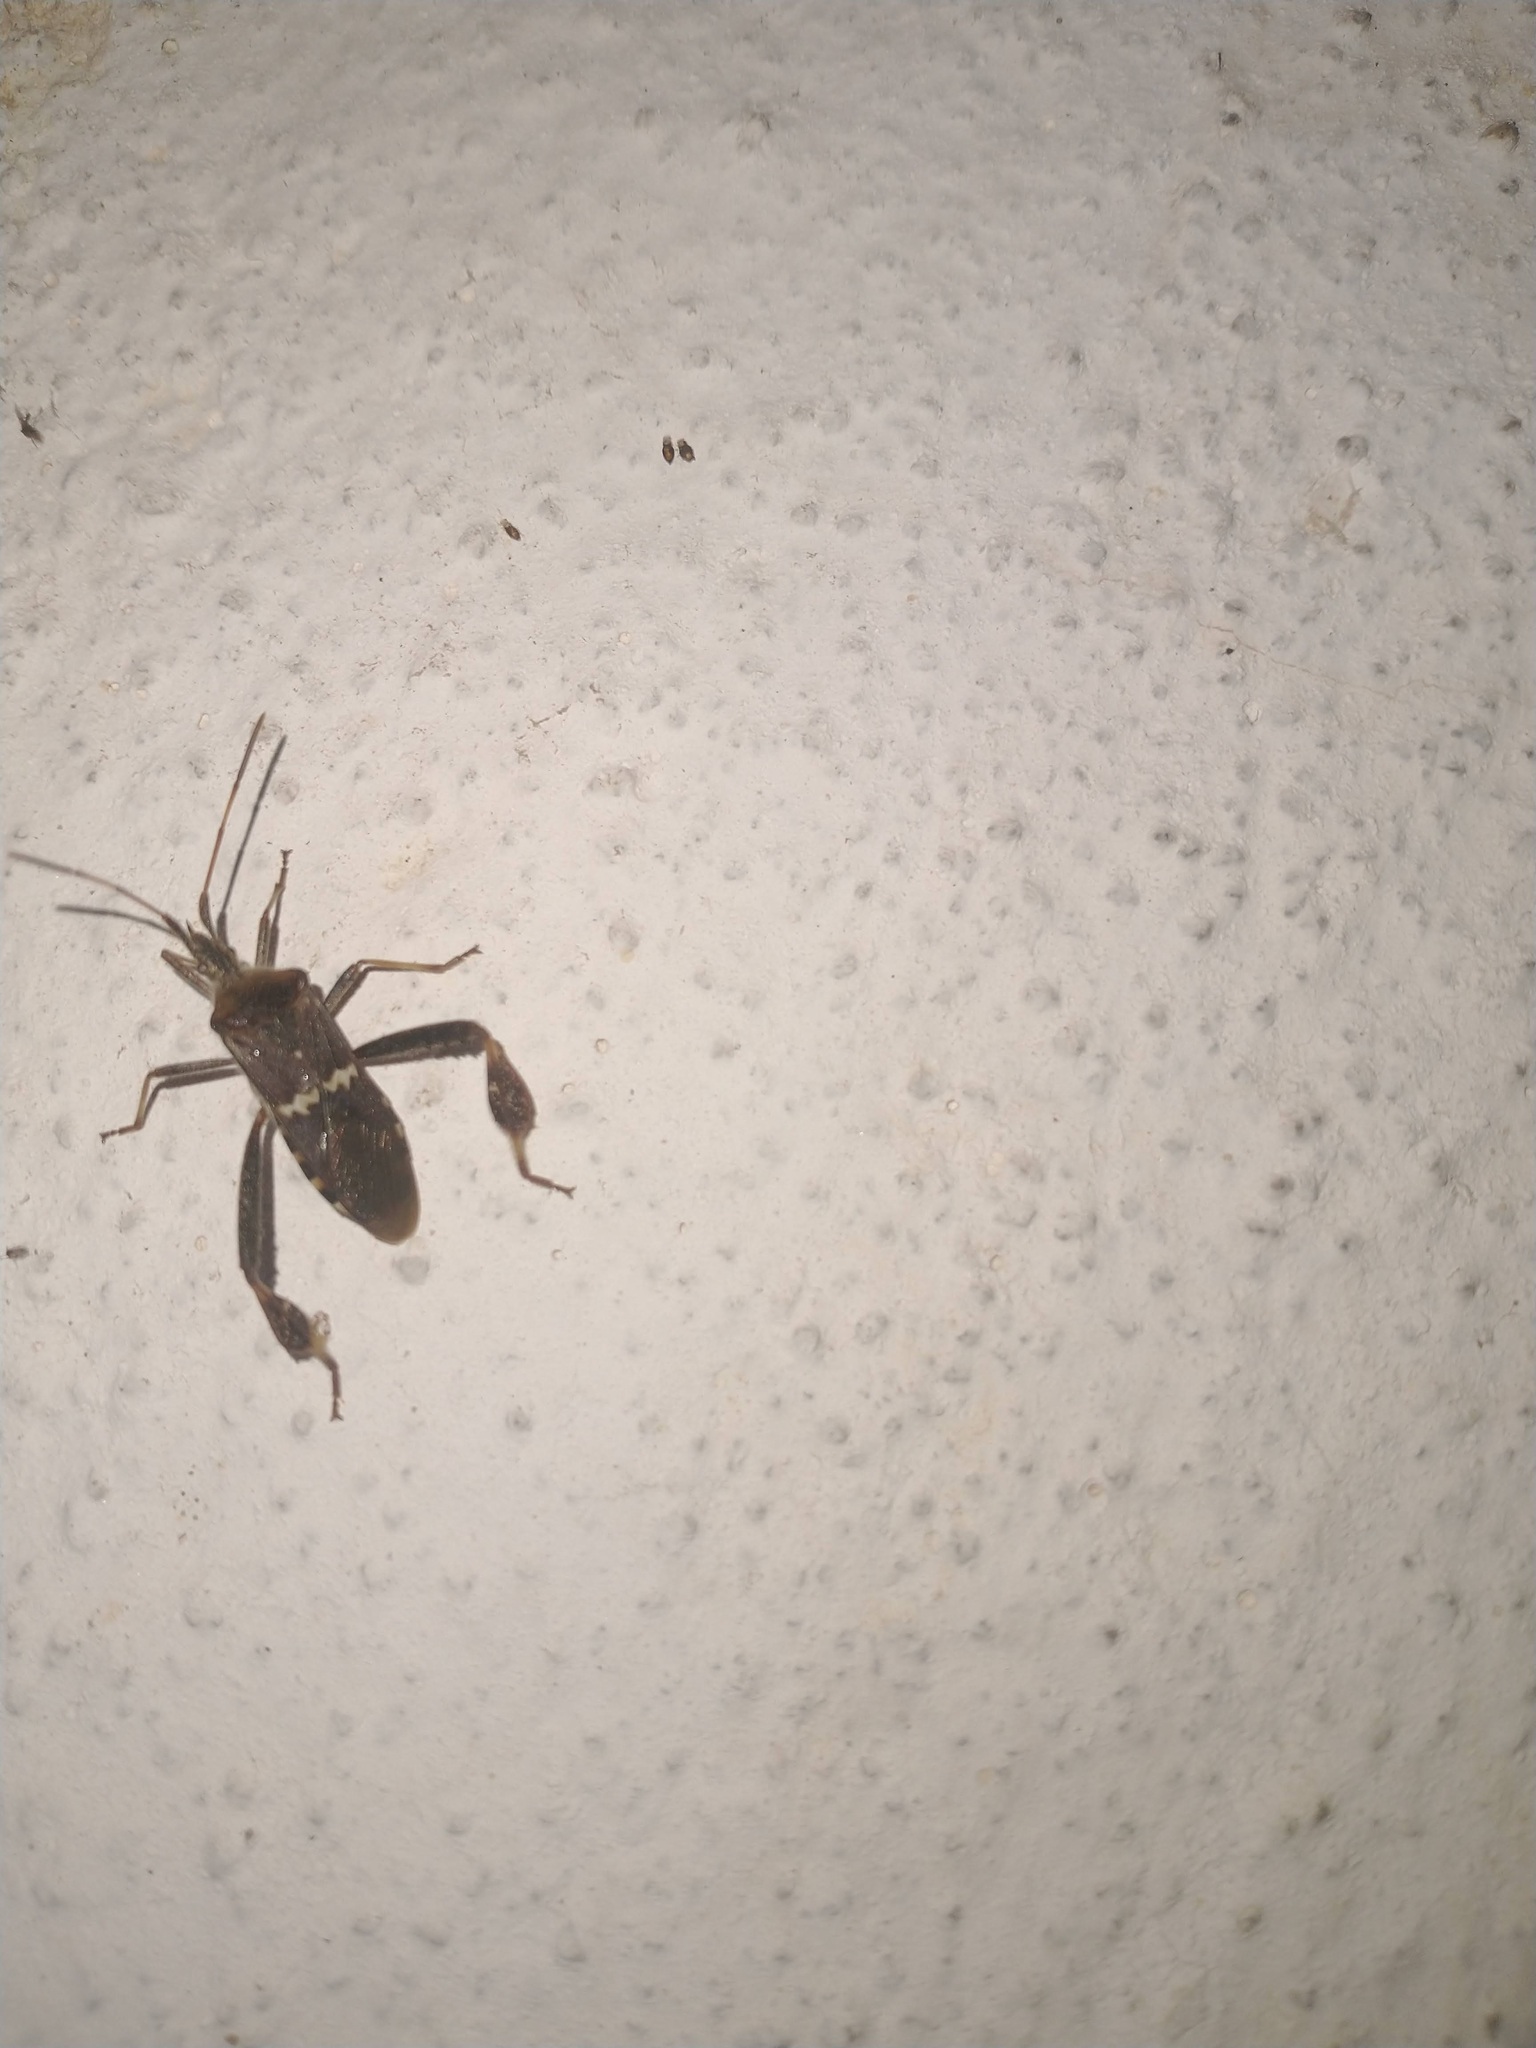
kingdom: Animalia
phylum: Arthropoda
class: Insecta
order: Hemiptera
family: Coreidae
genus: Leptoglossus
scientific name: Leptoglossus clypealis
